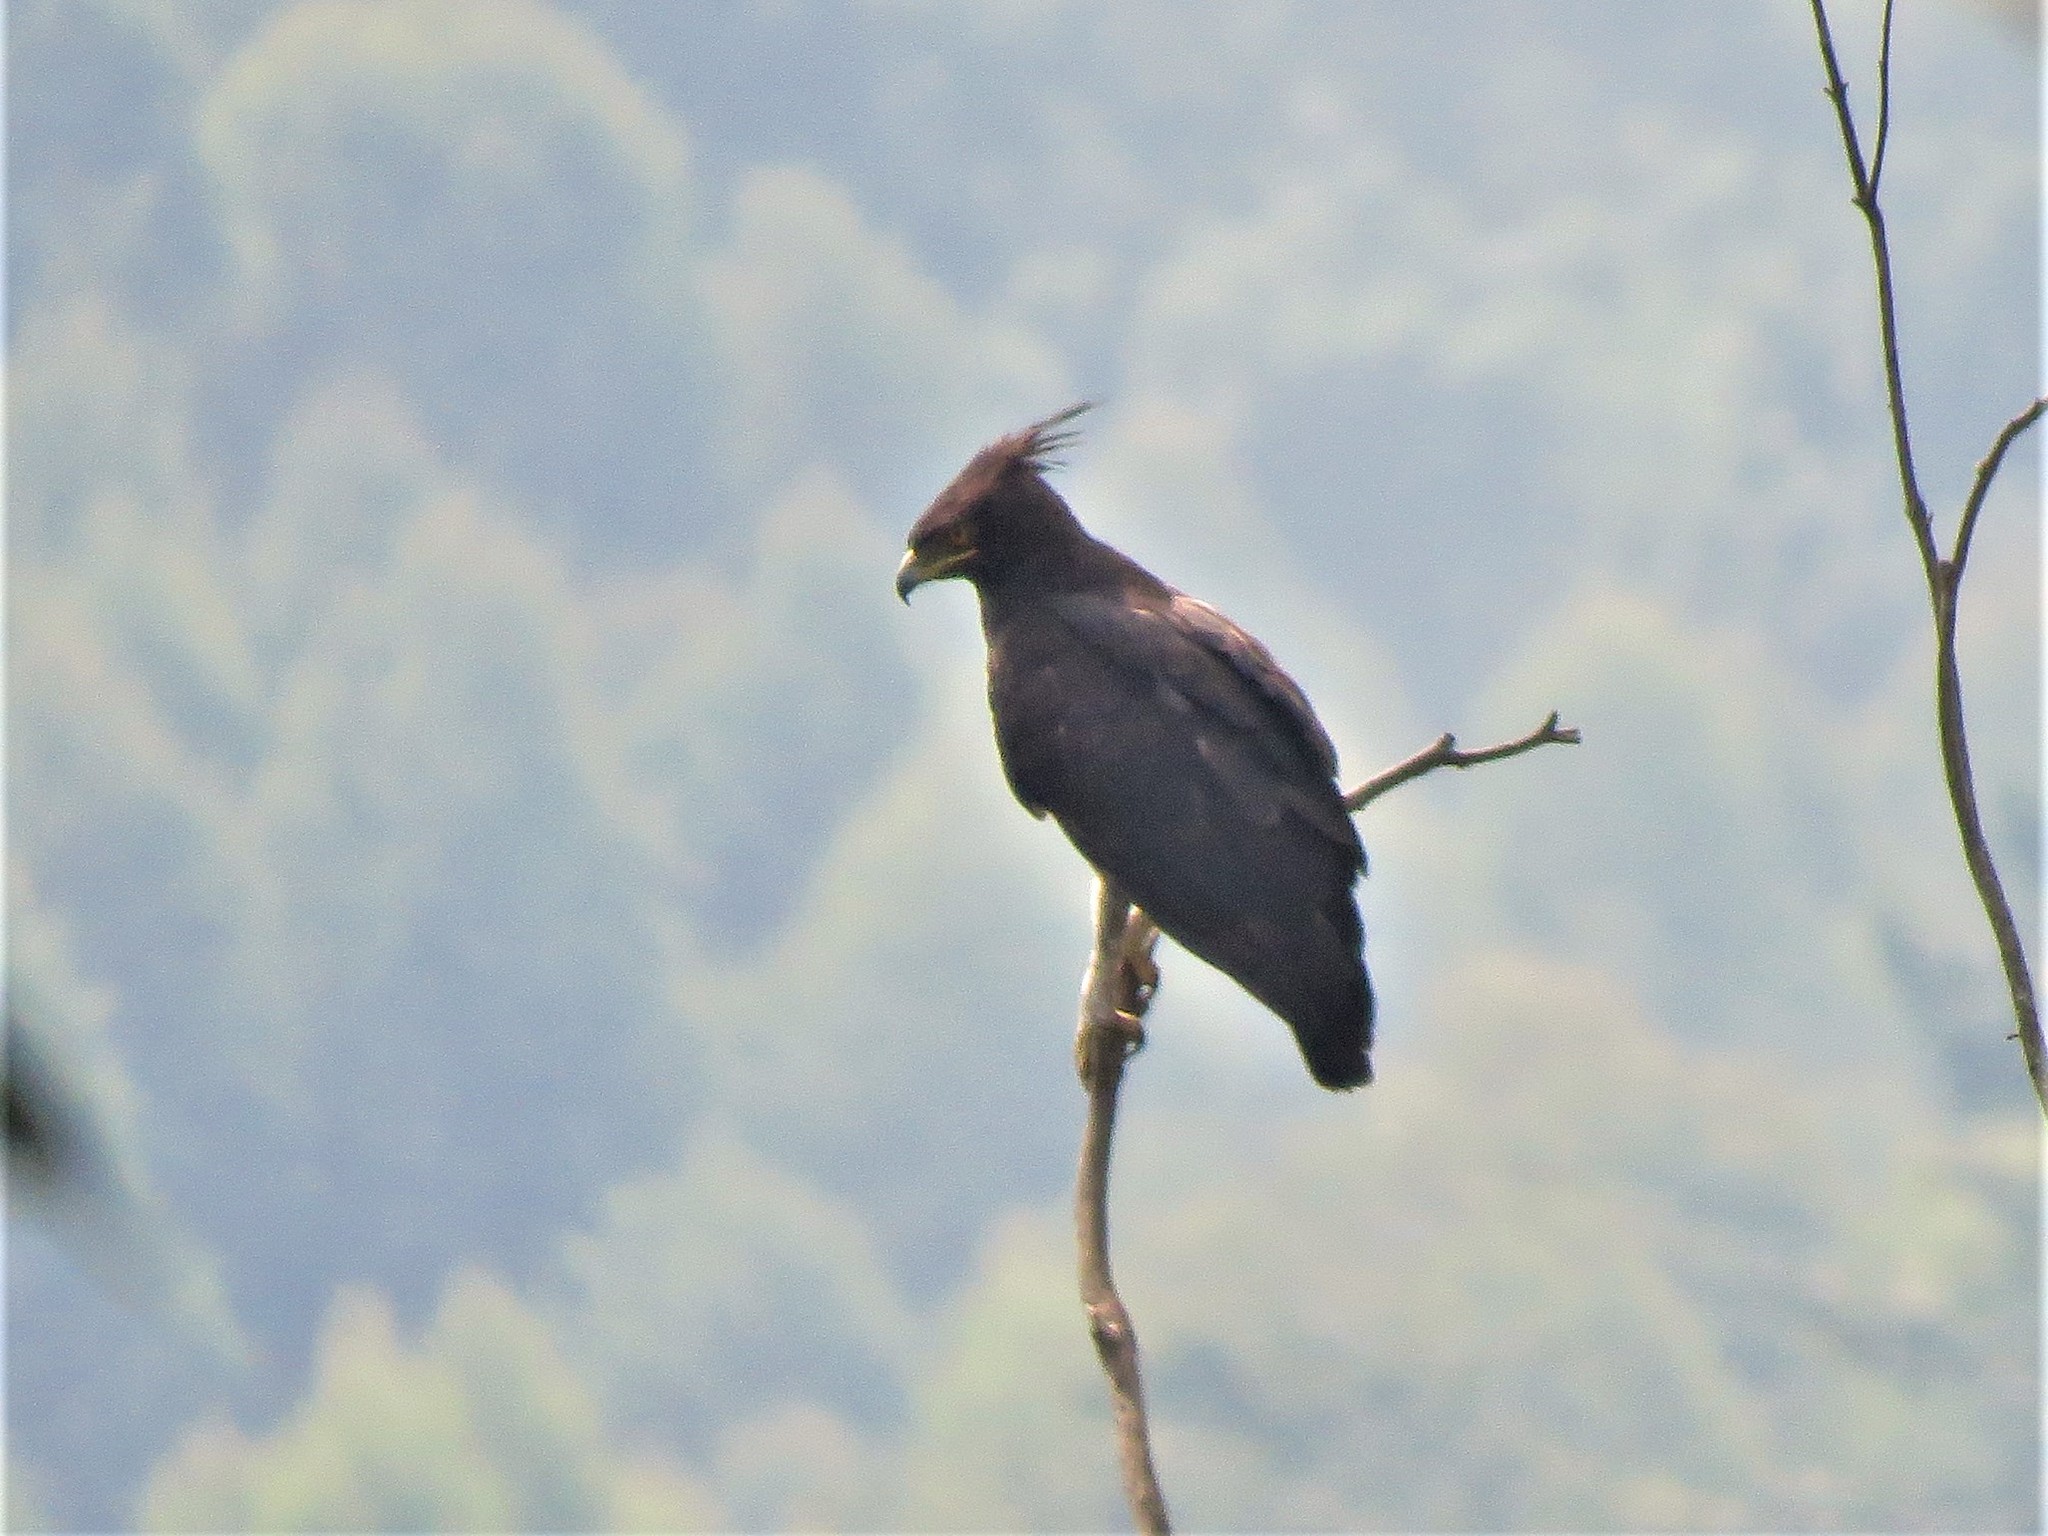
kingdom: Animalia
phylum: Chordata
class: Aves
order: Accipitriformes
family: Accipitridae
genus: Lophaetus
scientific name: Lophaetus occipitalis
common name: Long-crested eagle
